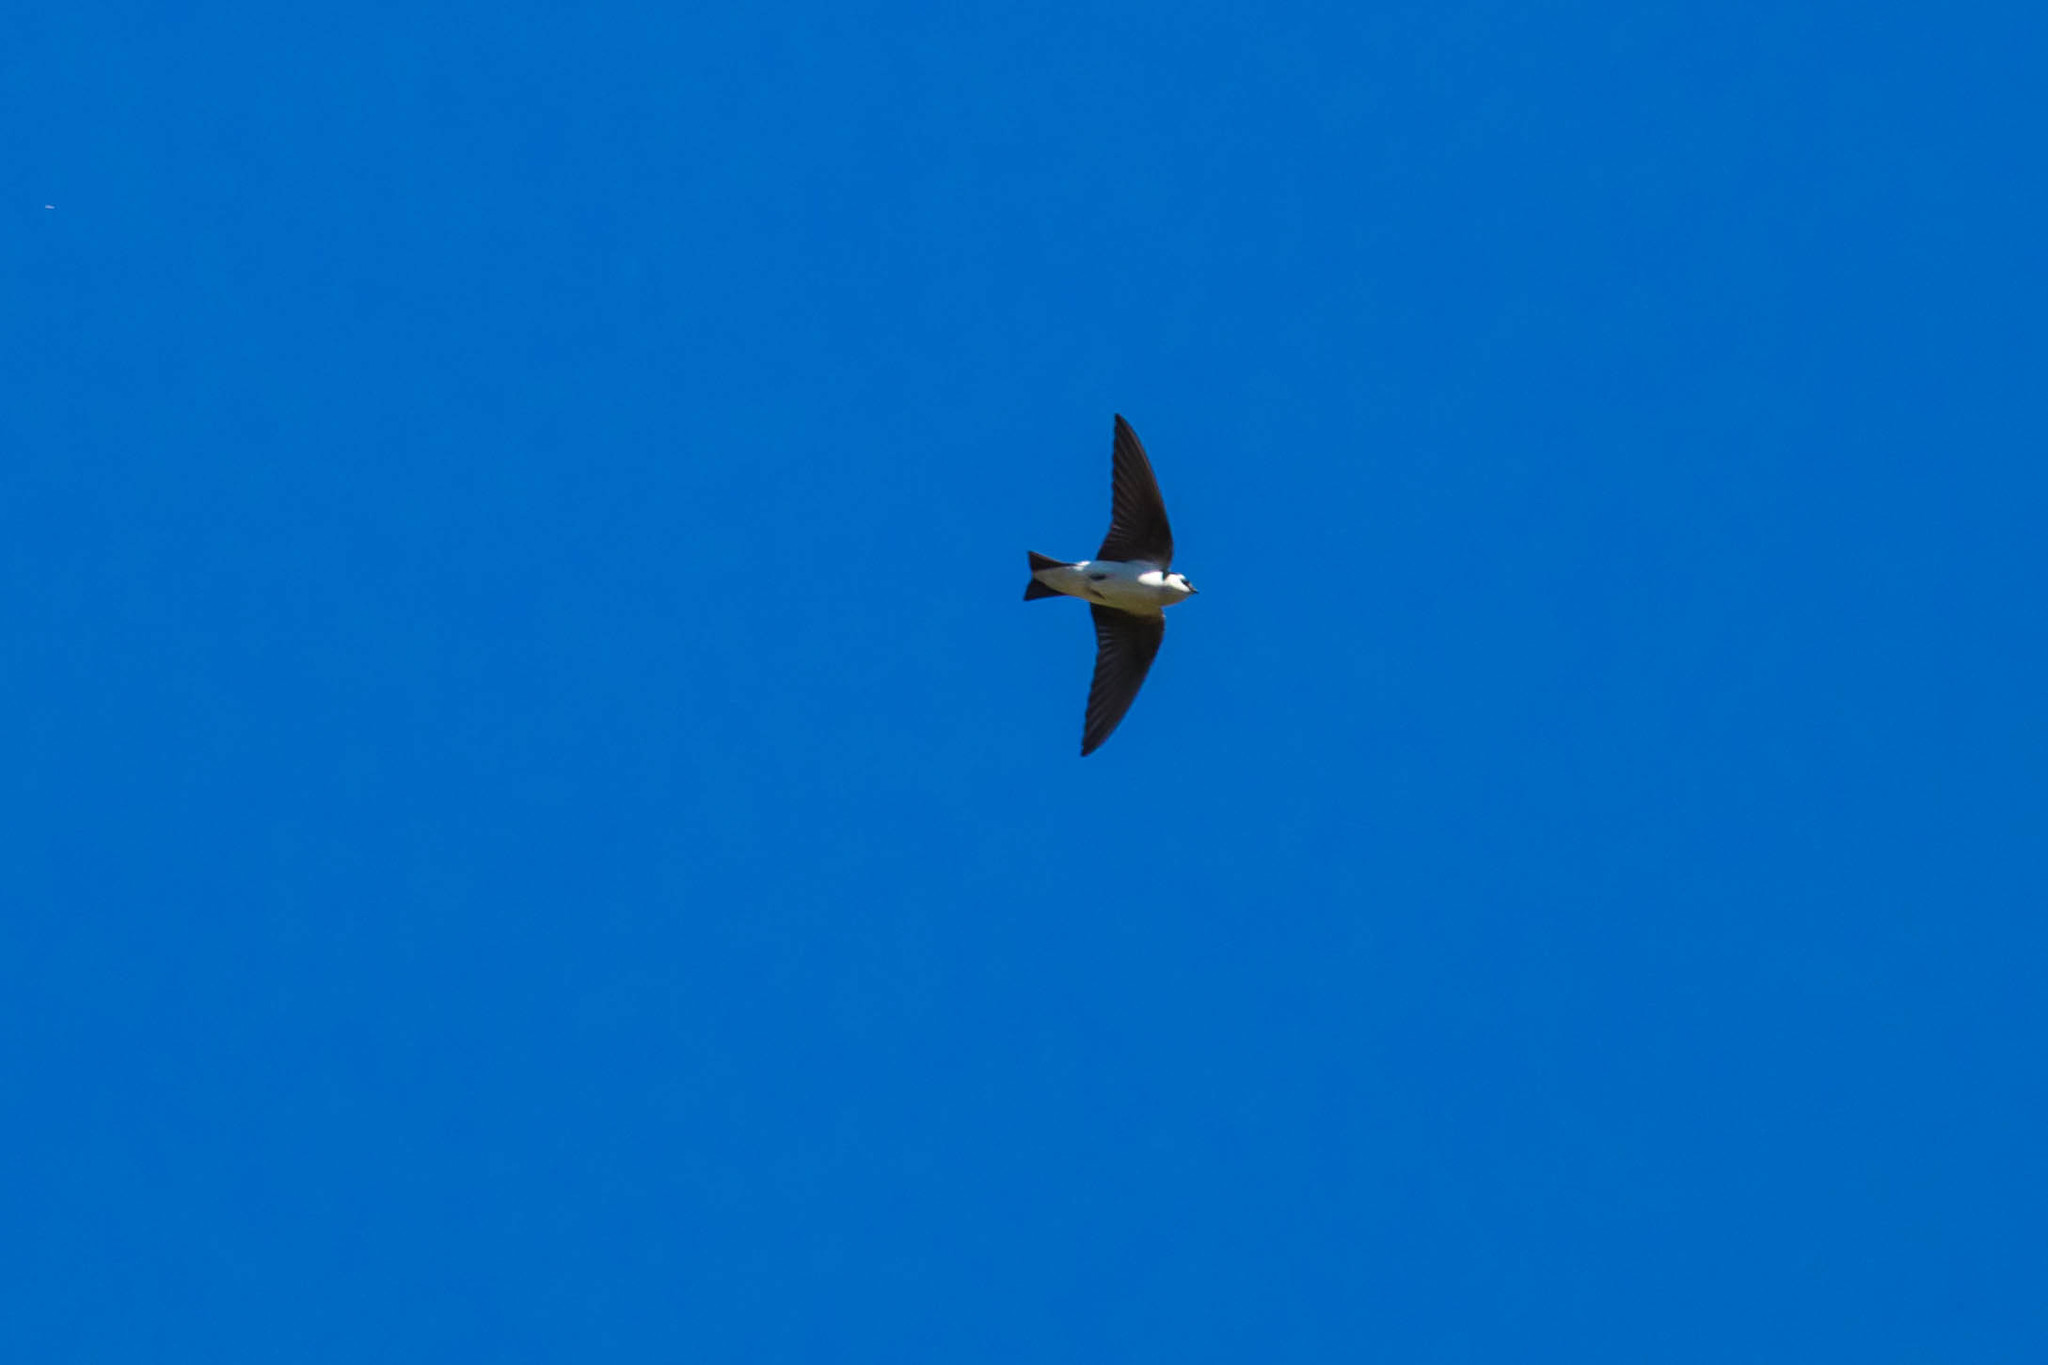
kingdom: Animalia
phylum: Chordata
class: Aves
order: Passeriformes
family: Hirundinidae
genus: Tachycineta
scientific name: Tachycineta thalassina
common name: Violet-green swallow
